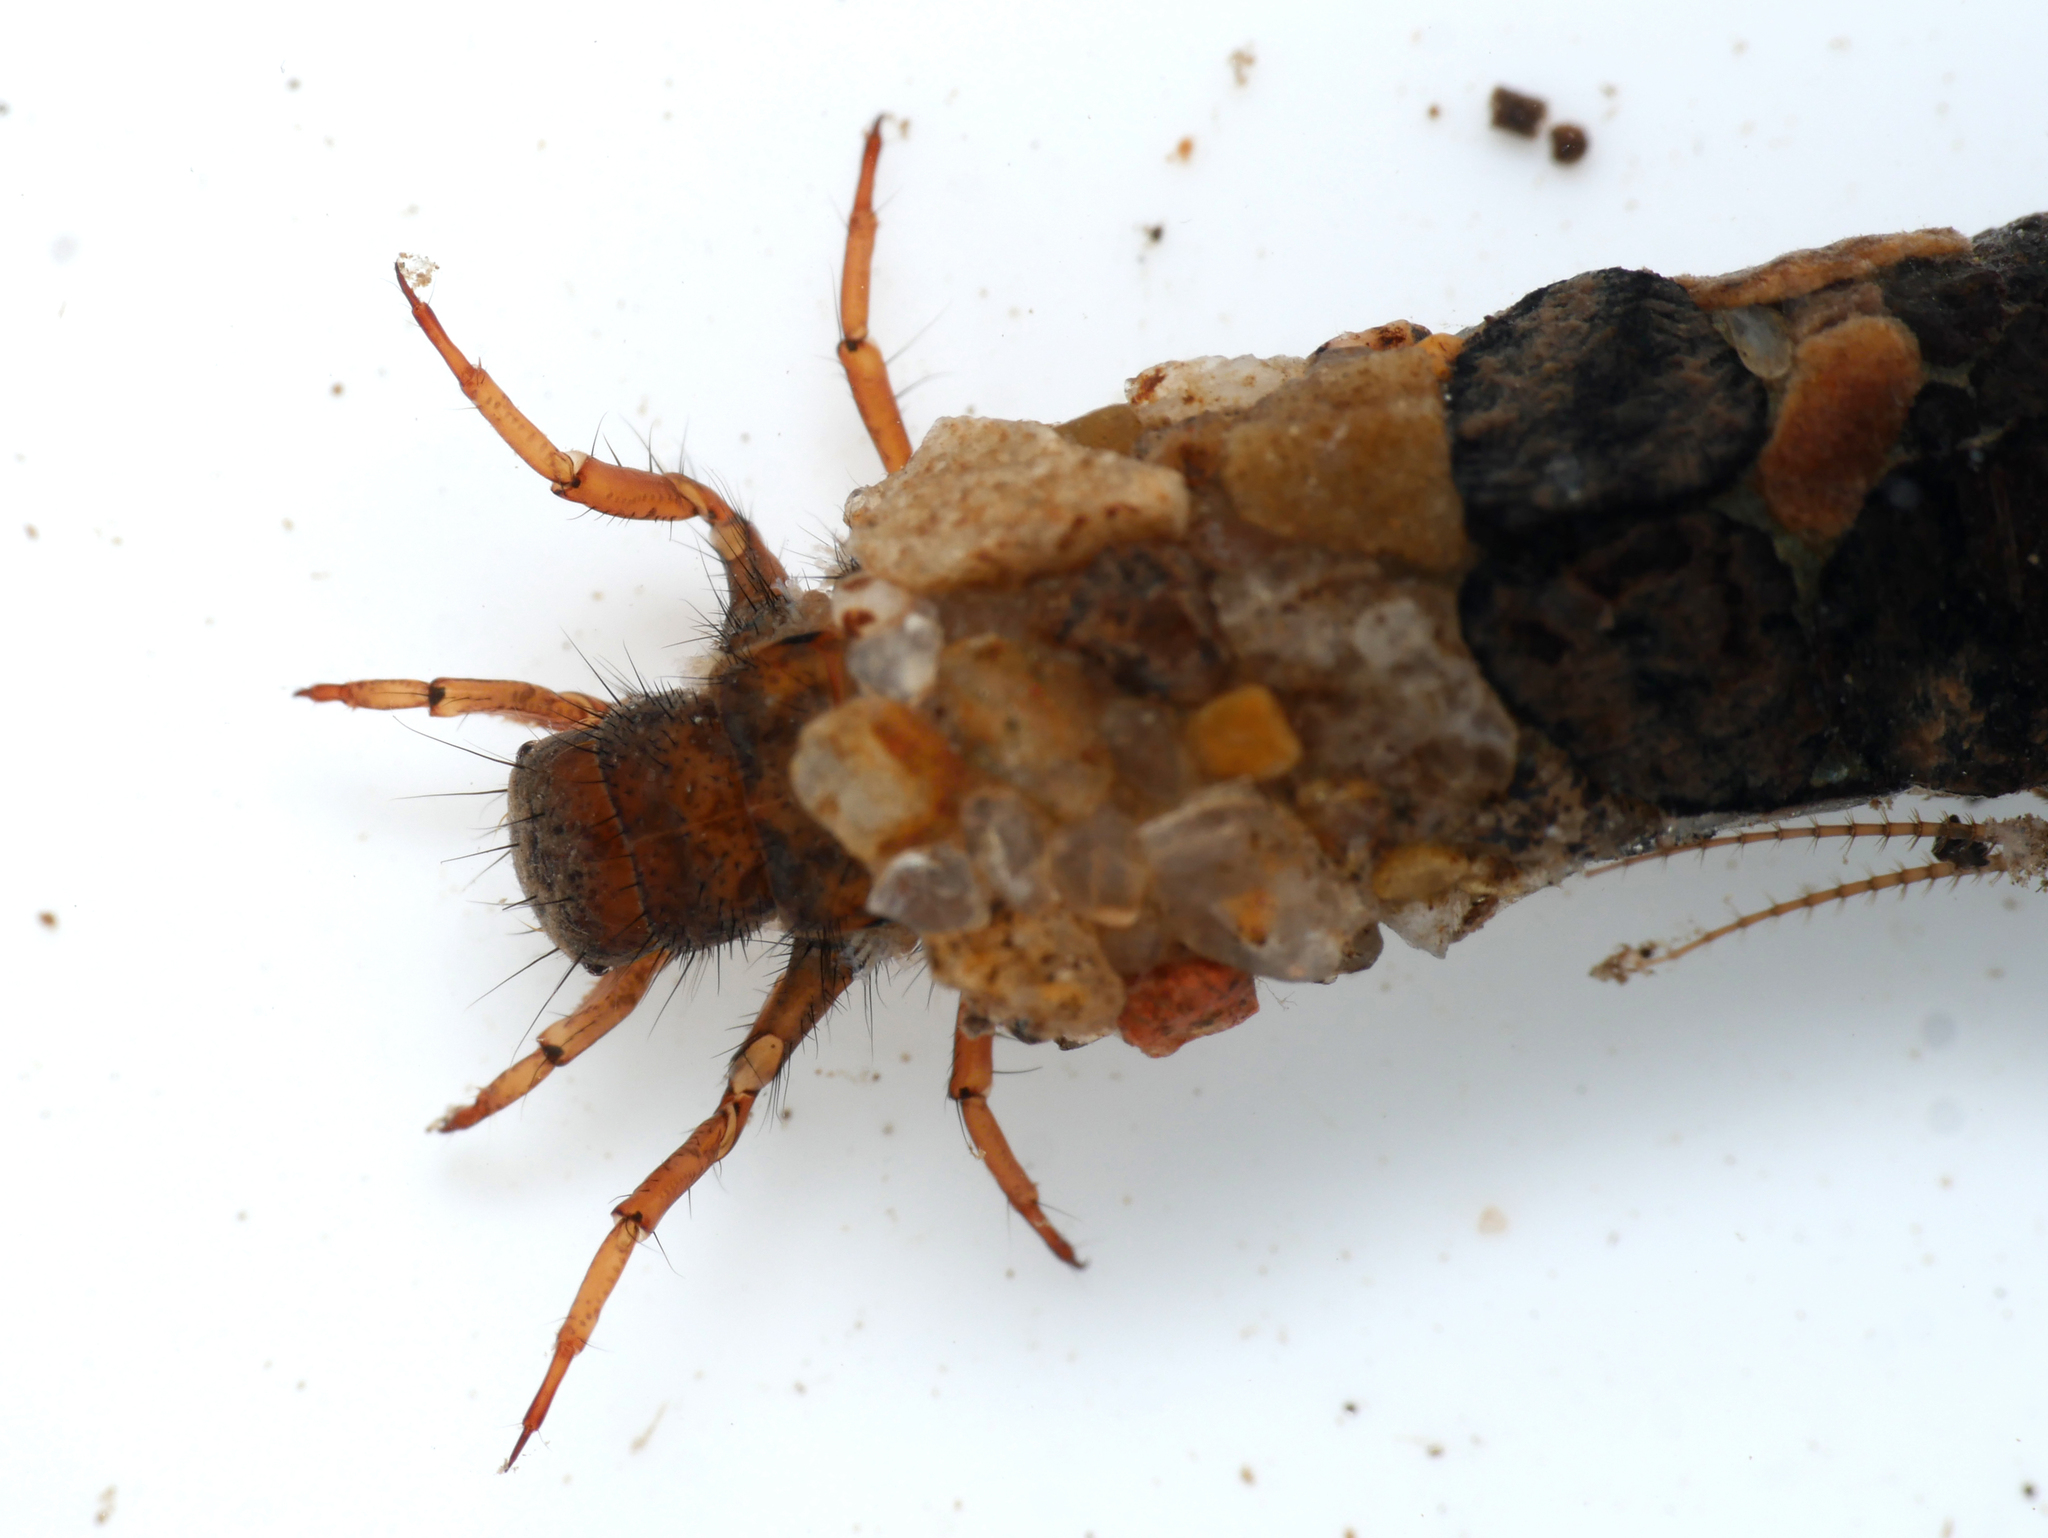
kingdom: Animalia
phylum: Arthropoda
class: Insecta
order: Trichoptera
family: Limnephilidae
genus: Potamophylax
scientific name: Potamophylax nigricornis
